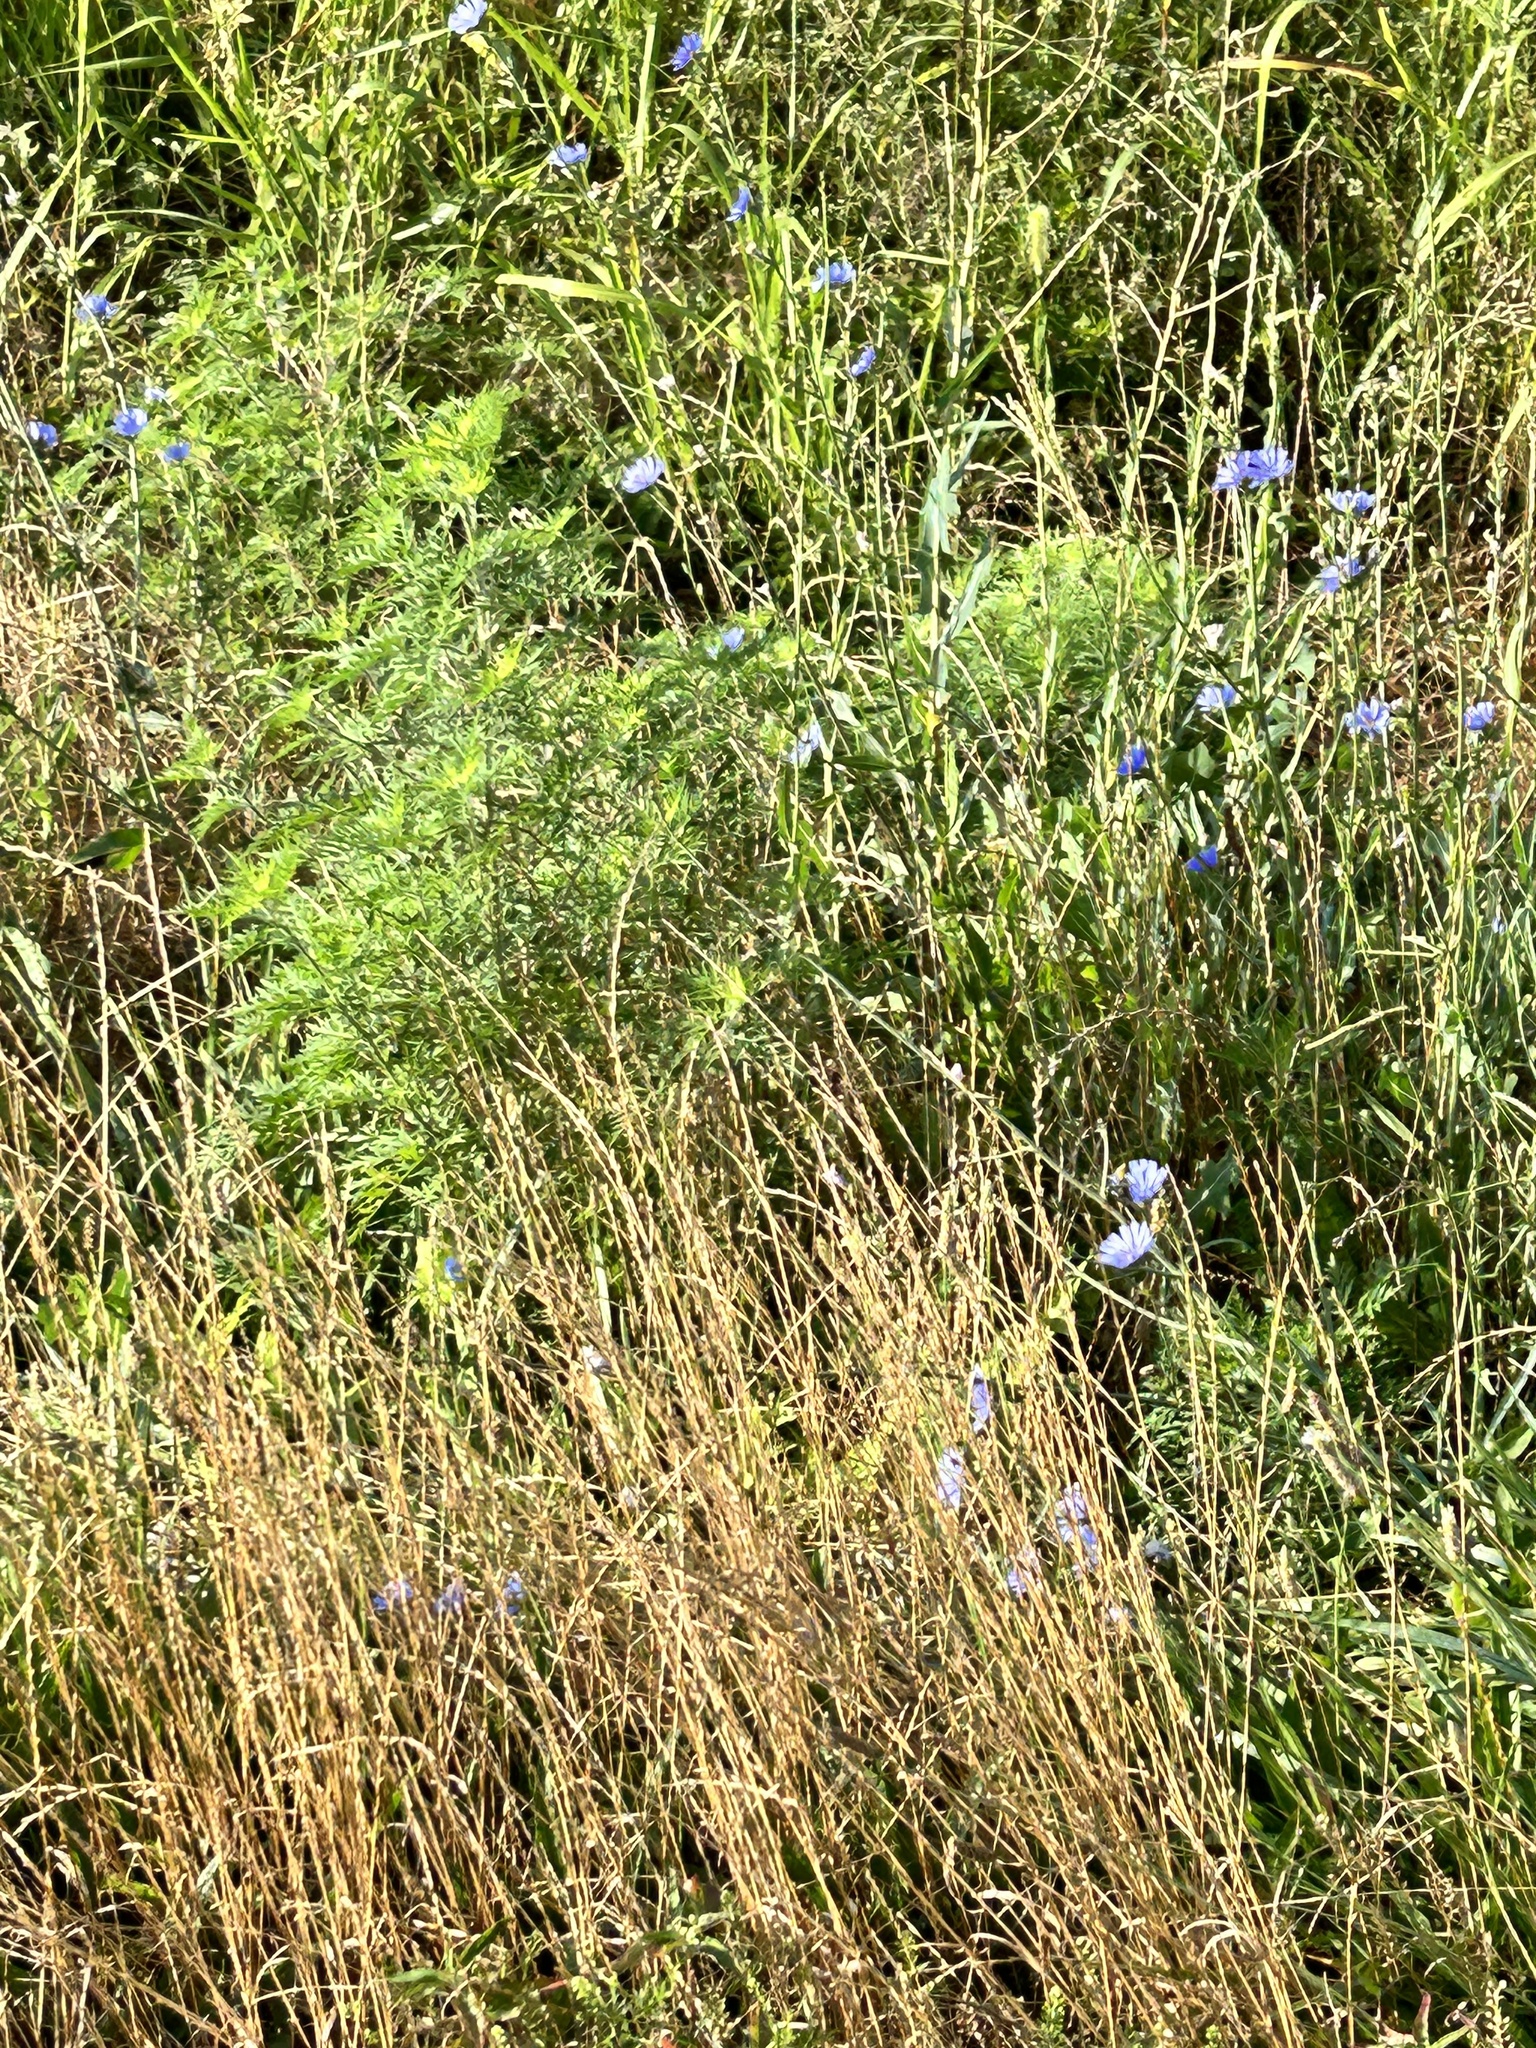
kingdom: Plantae
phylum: Tracheophyta
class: Magnoliopsida
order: Asterales
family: Asteraceae
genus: Cichorium
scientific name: Cichorium intybus
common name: Chicory
